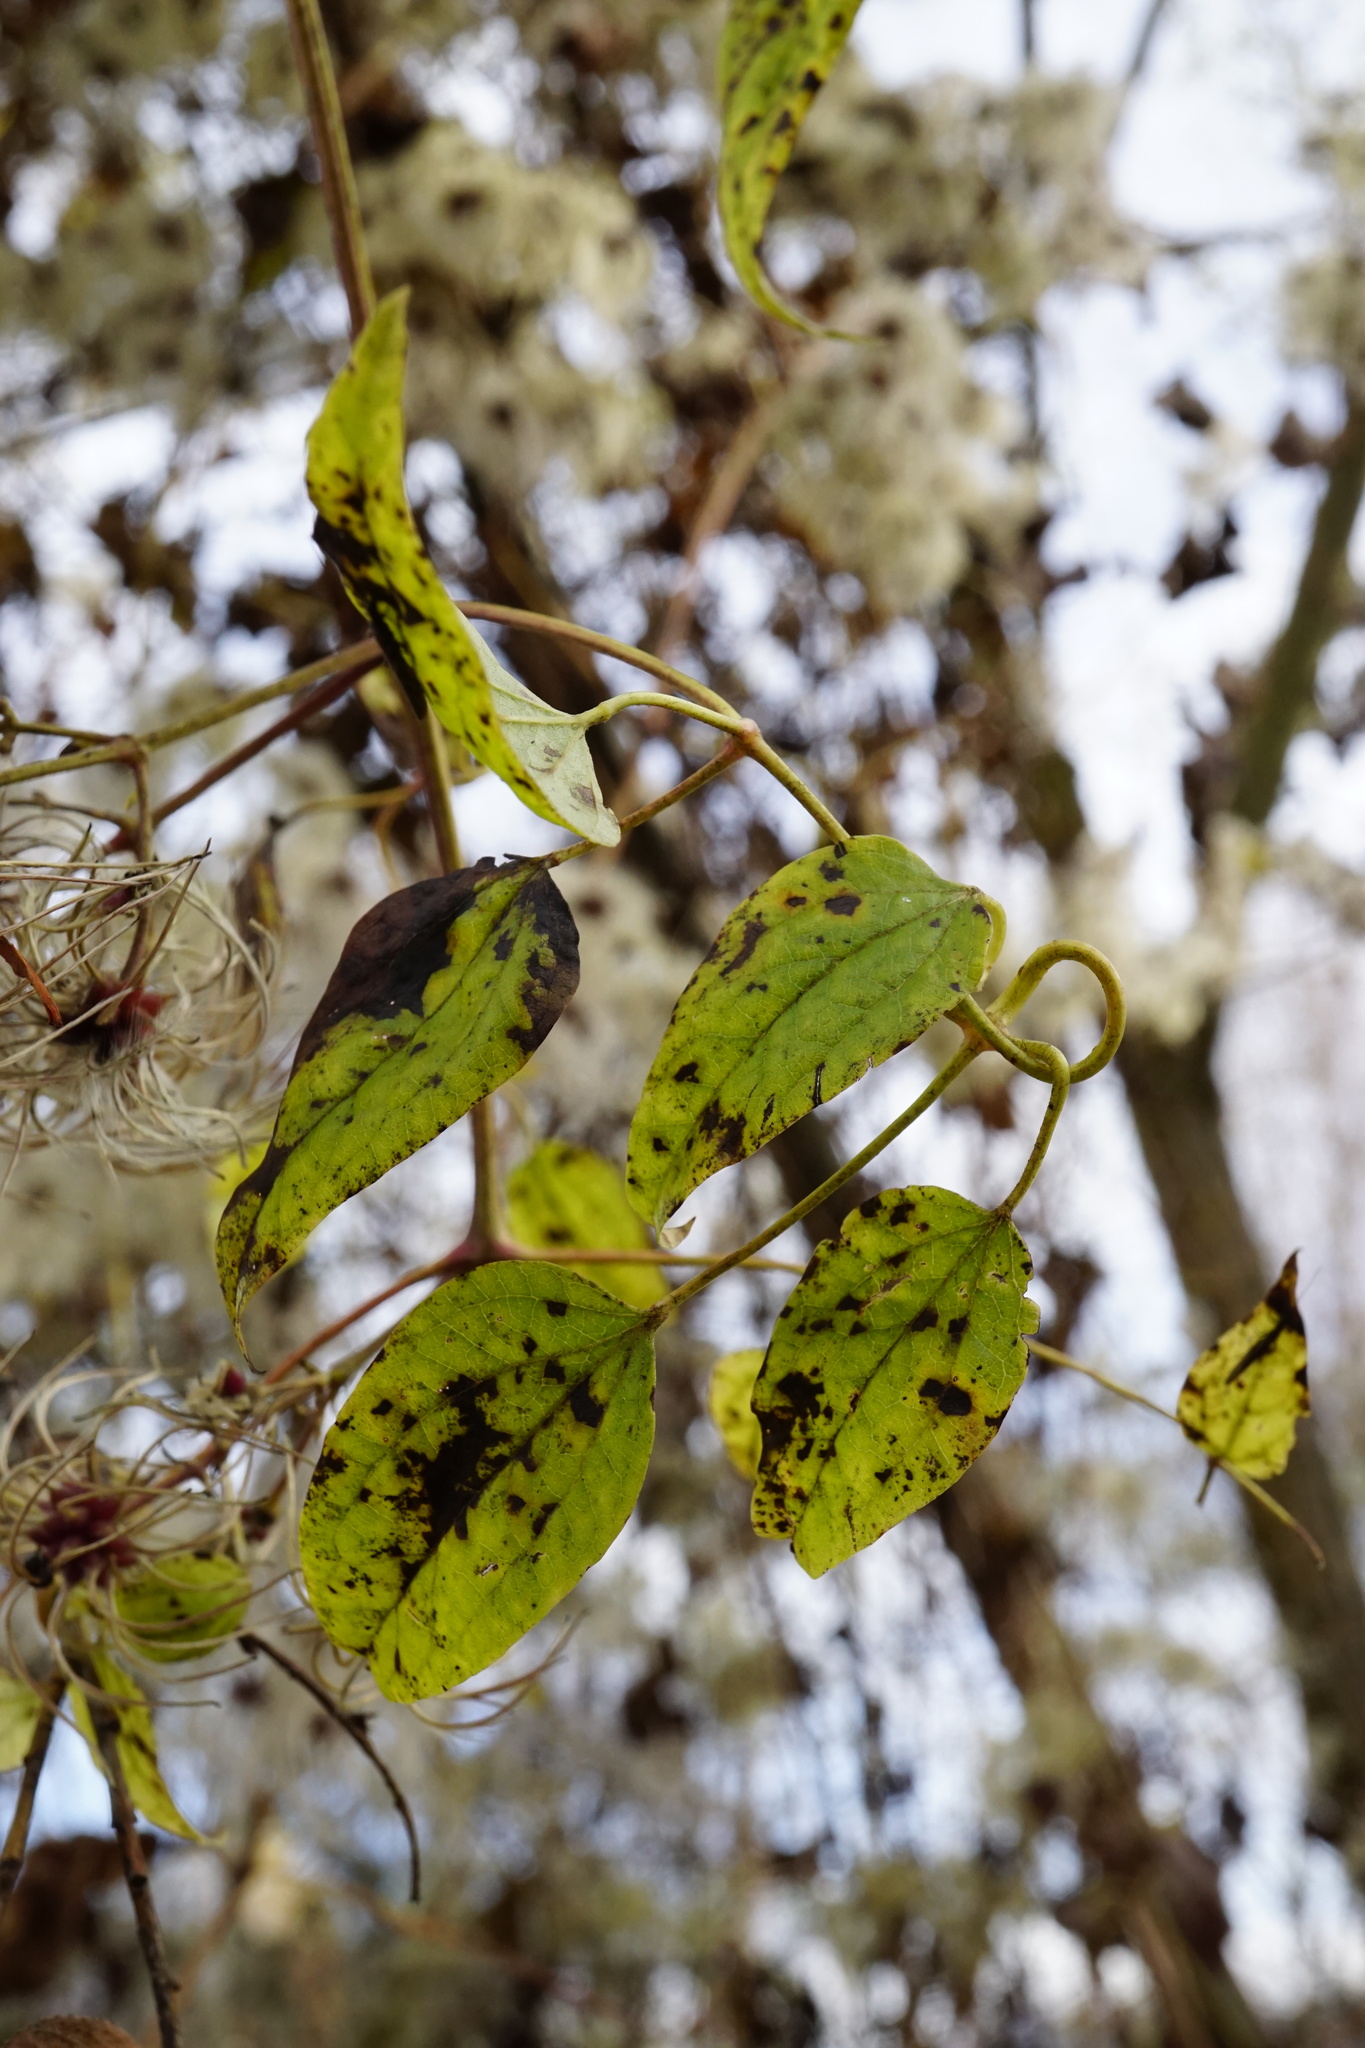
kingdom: Plantae
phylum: Tracheophyta
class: Magnoliopsida
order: Ranunculales
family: Ranunculaceae
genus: Clematis
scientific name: Clematis vitalba
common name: Evergreen clematis
